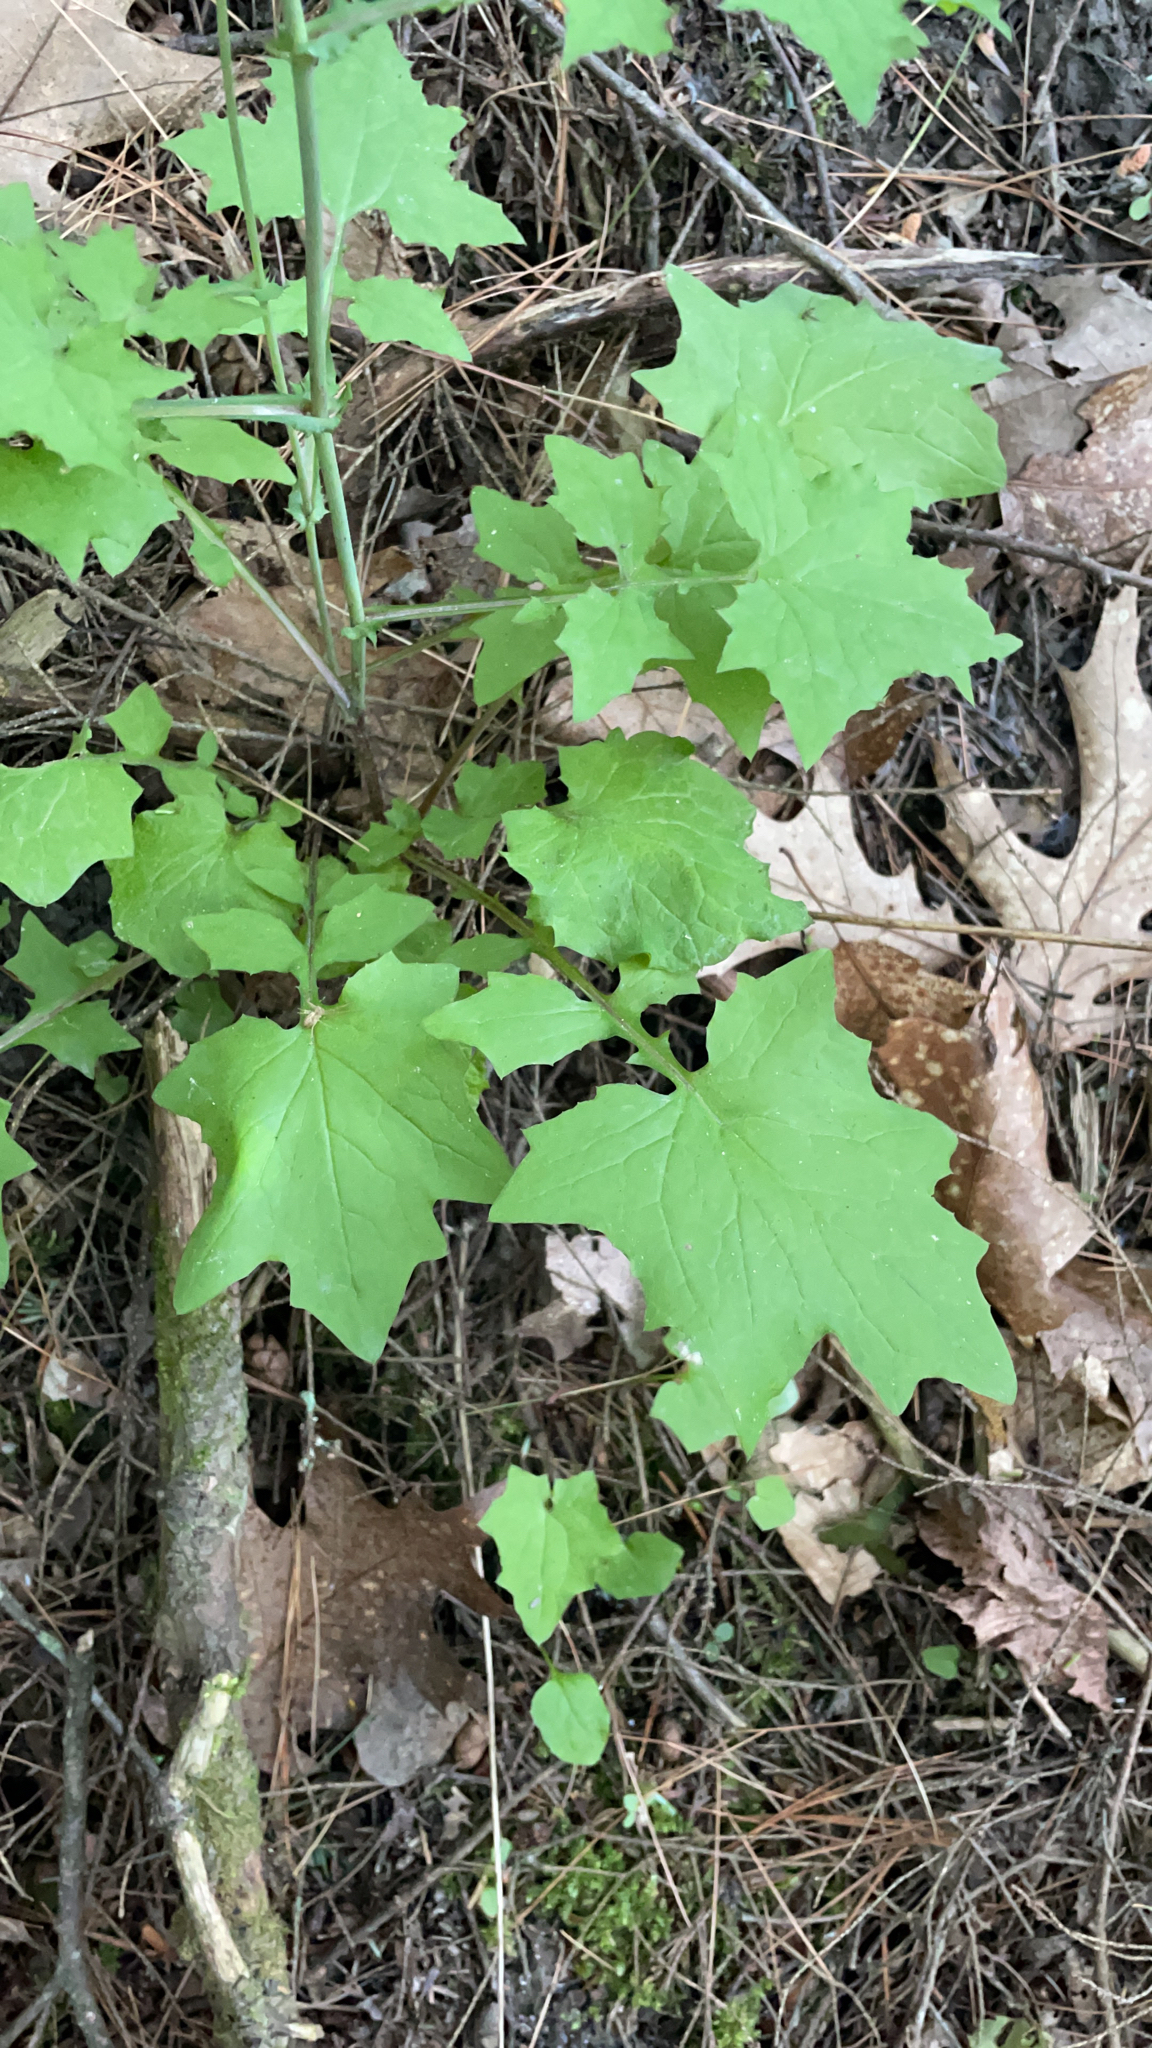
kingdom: Plantae
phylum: Tracheophyta
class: Magnoliopsida
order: Asterales
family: Asteraceae
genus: Mycelis
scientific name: Mycelis muralis
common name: Wall lettuce
